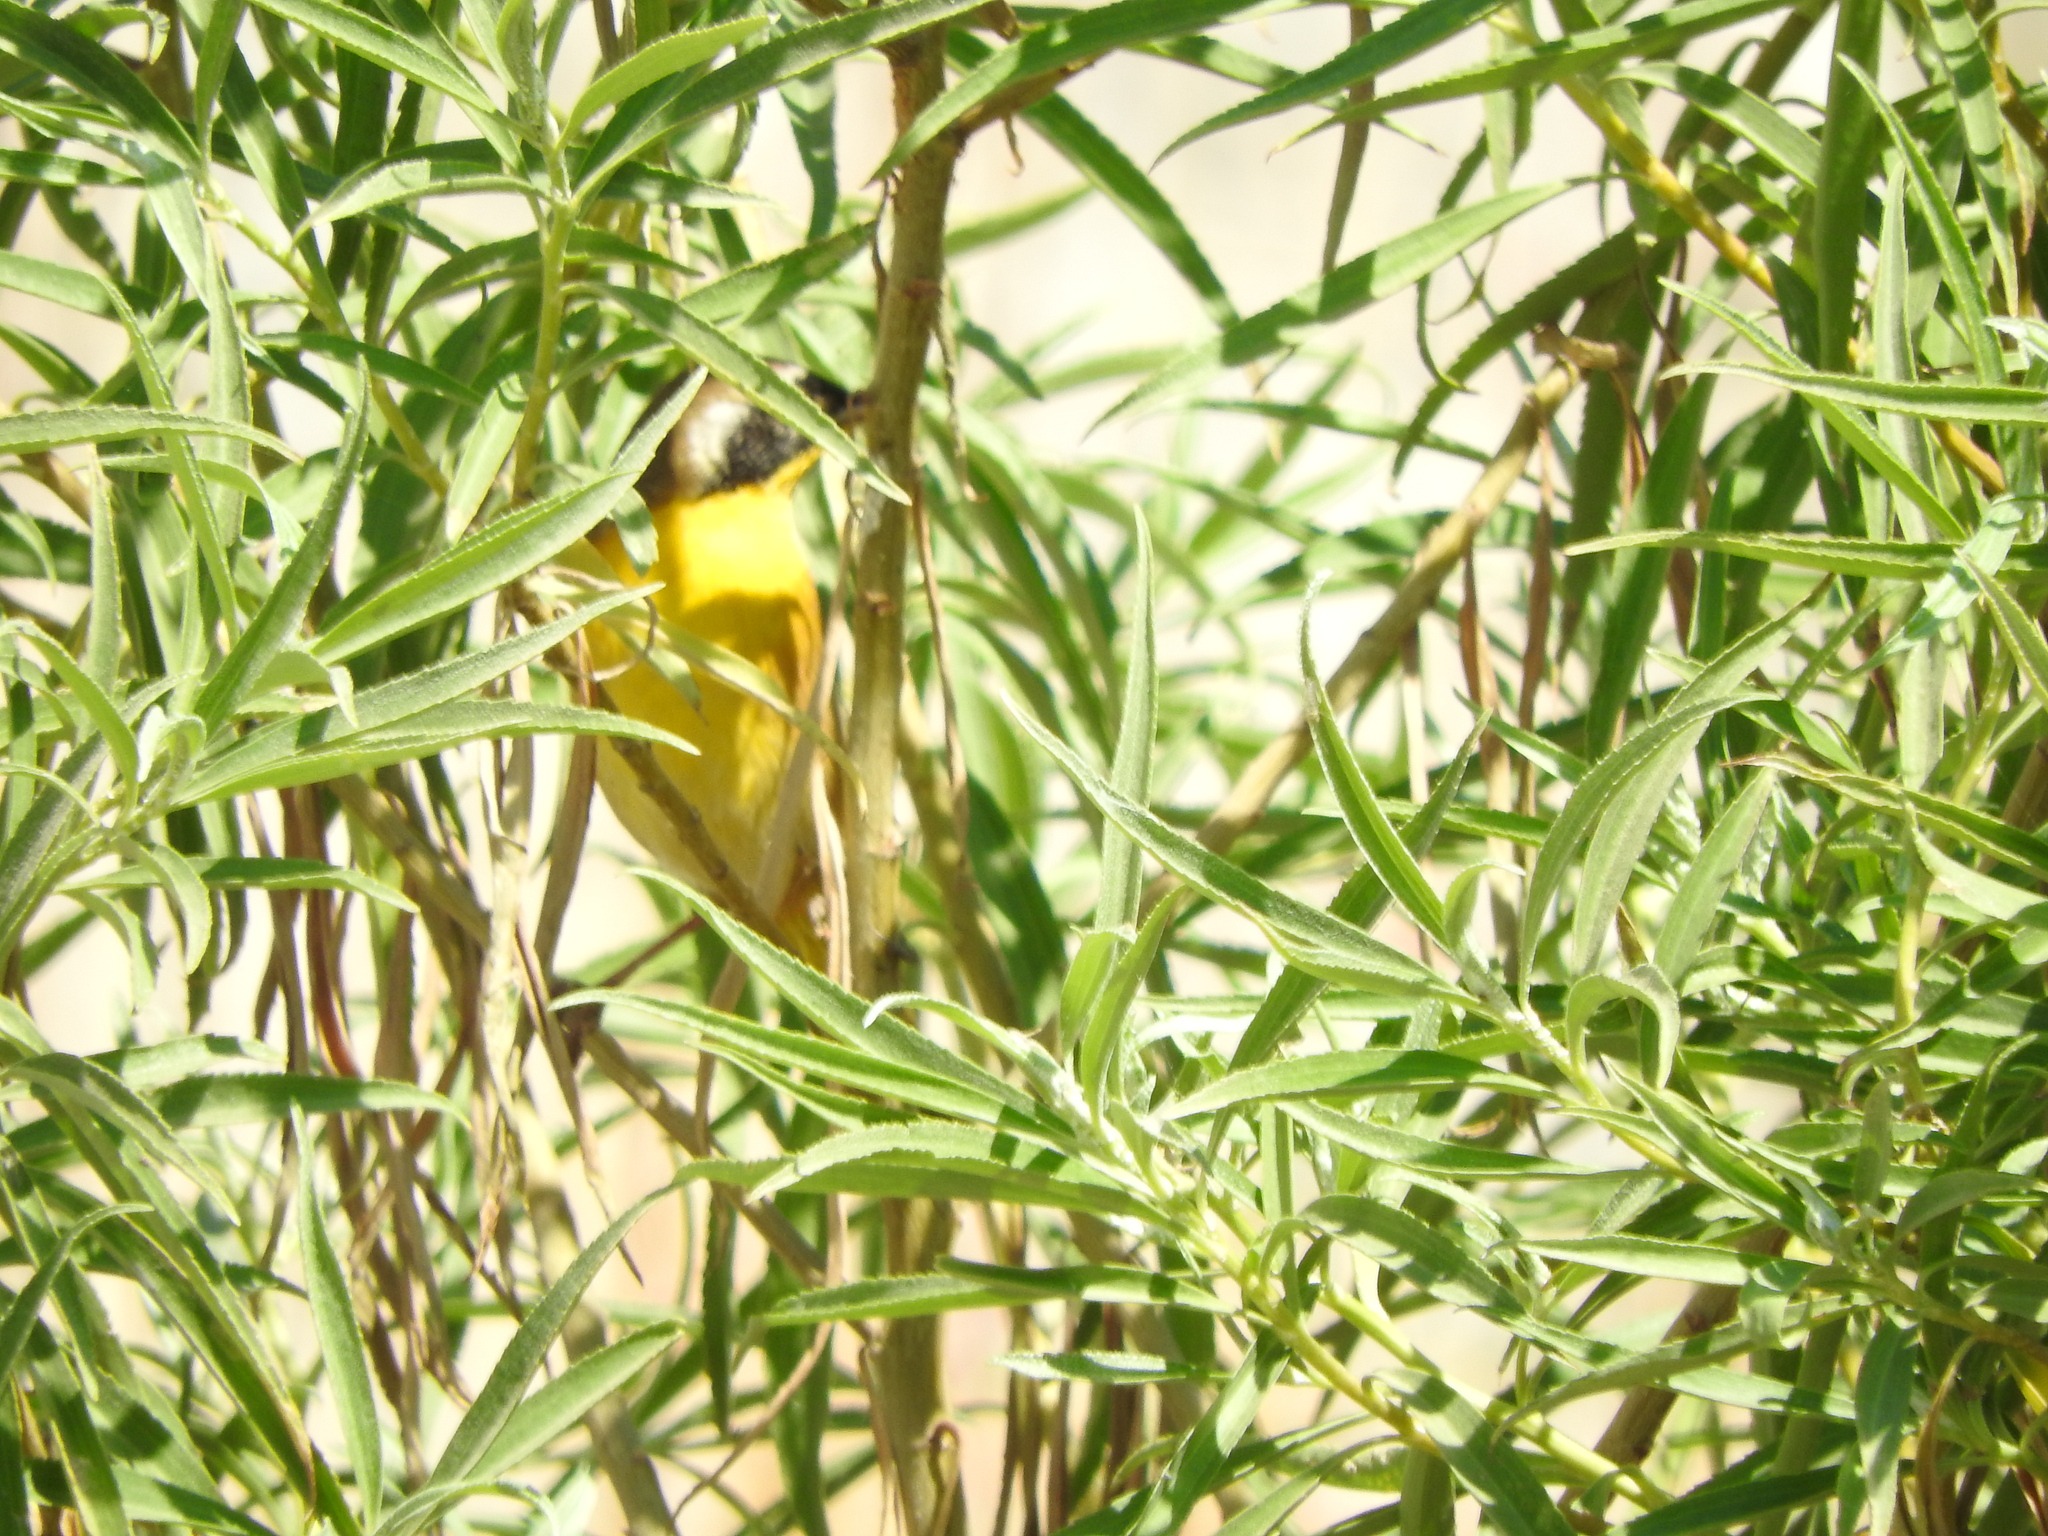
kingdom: Animalia
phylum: Chordata
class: Aves
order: Passeriformes
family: Parulidae
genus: Geothlypis
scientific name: Geothlypis trichas
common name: Common yellowthroat
